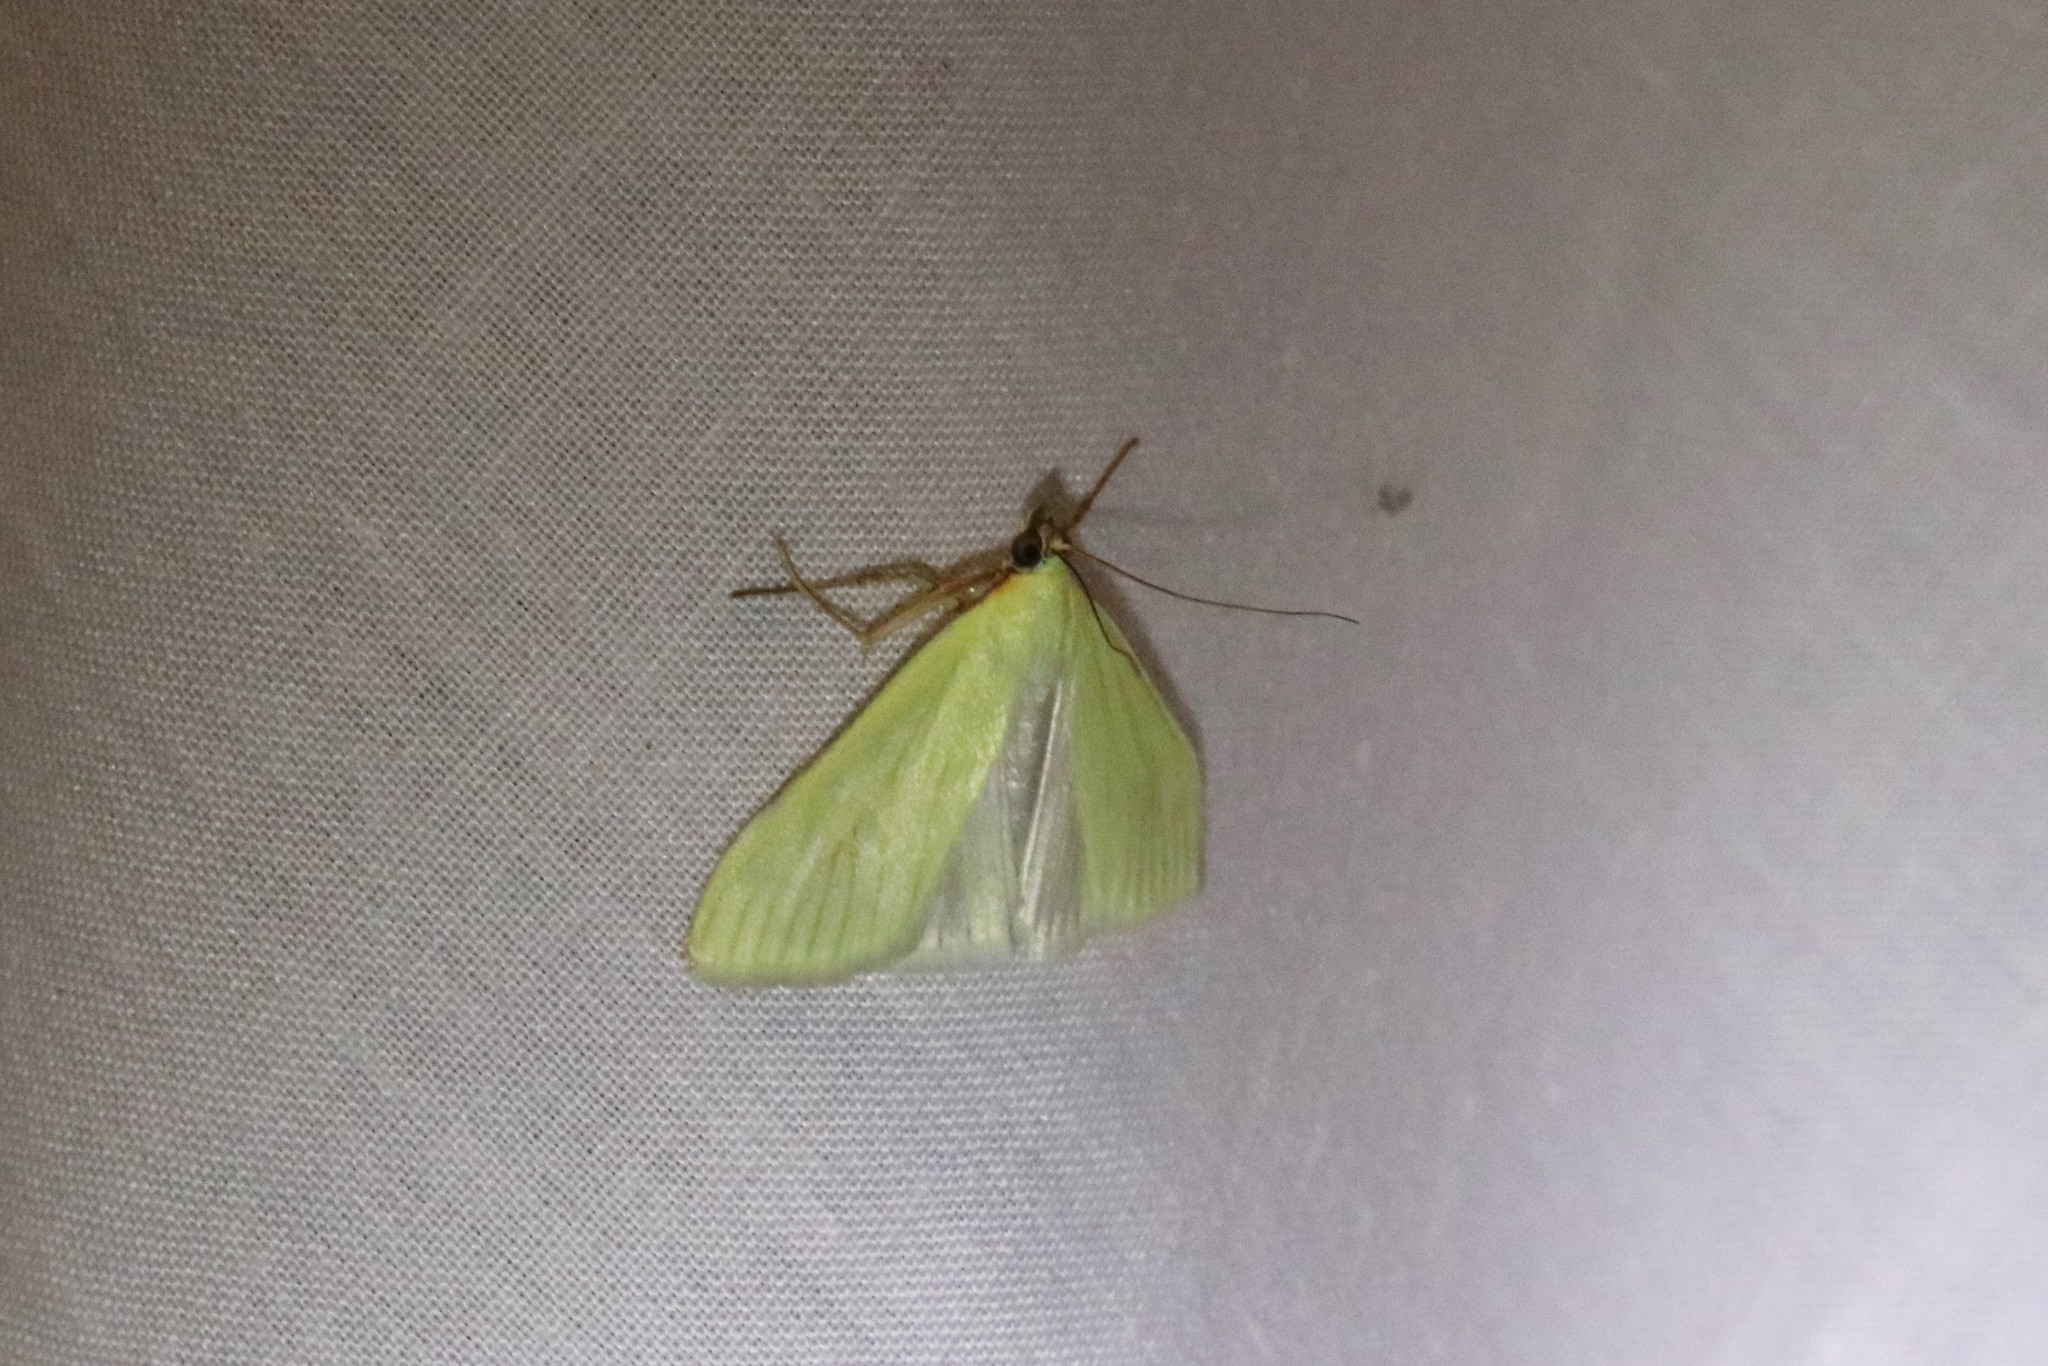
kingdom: Animalia
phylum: Arthropoda
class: Insecta
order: Lepidoptera
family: Crambidae
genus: Sitochroa
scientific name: Sitochroa palealis
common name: Greenish-yellow sitochroa moth
